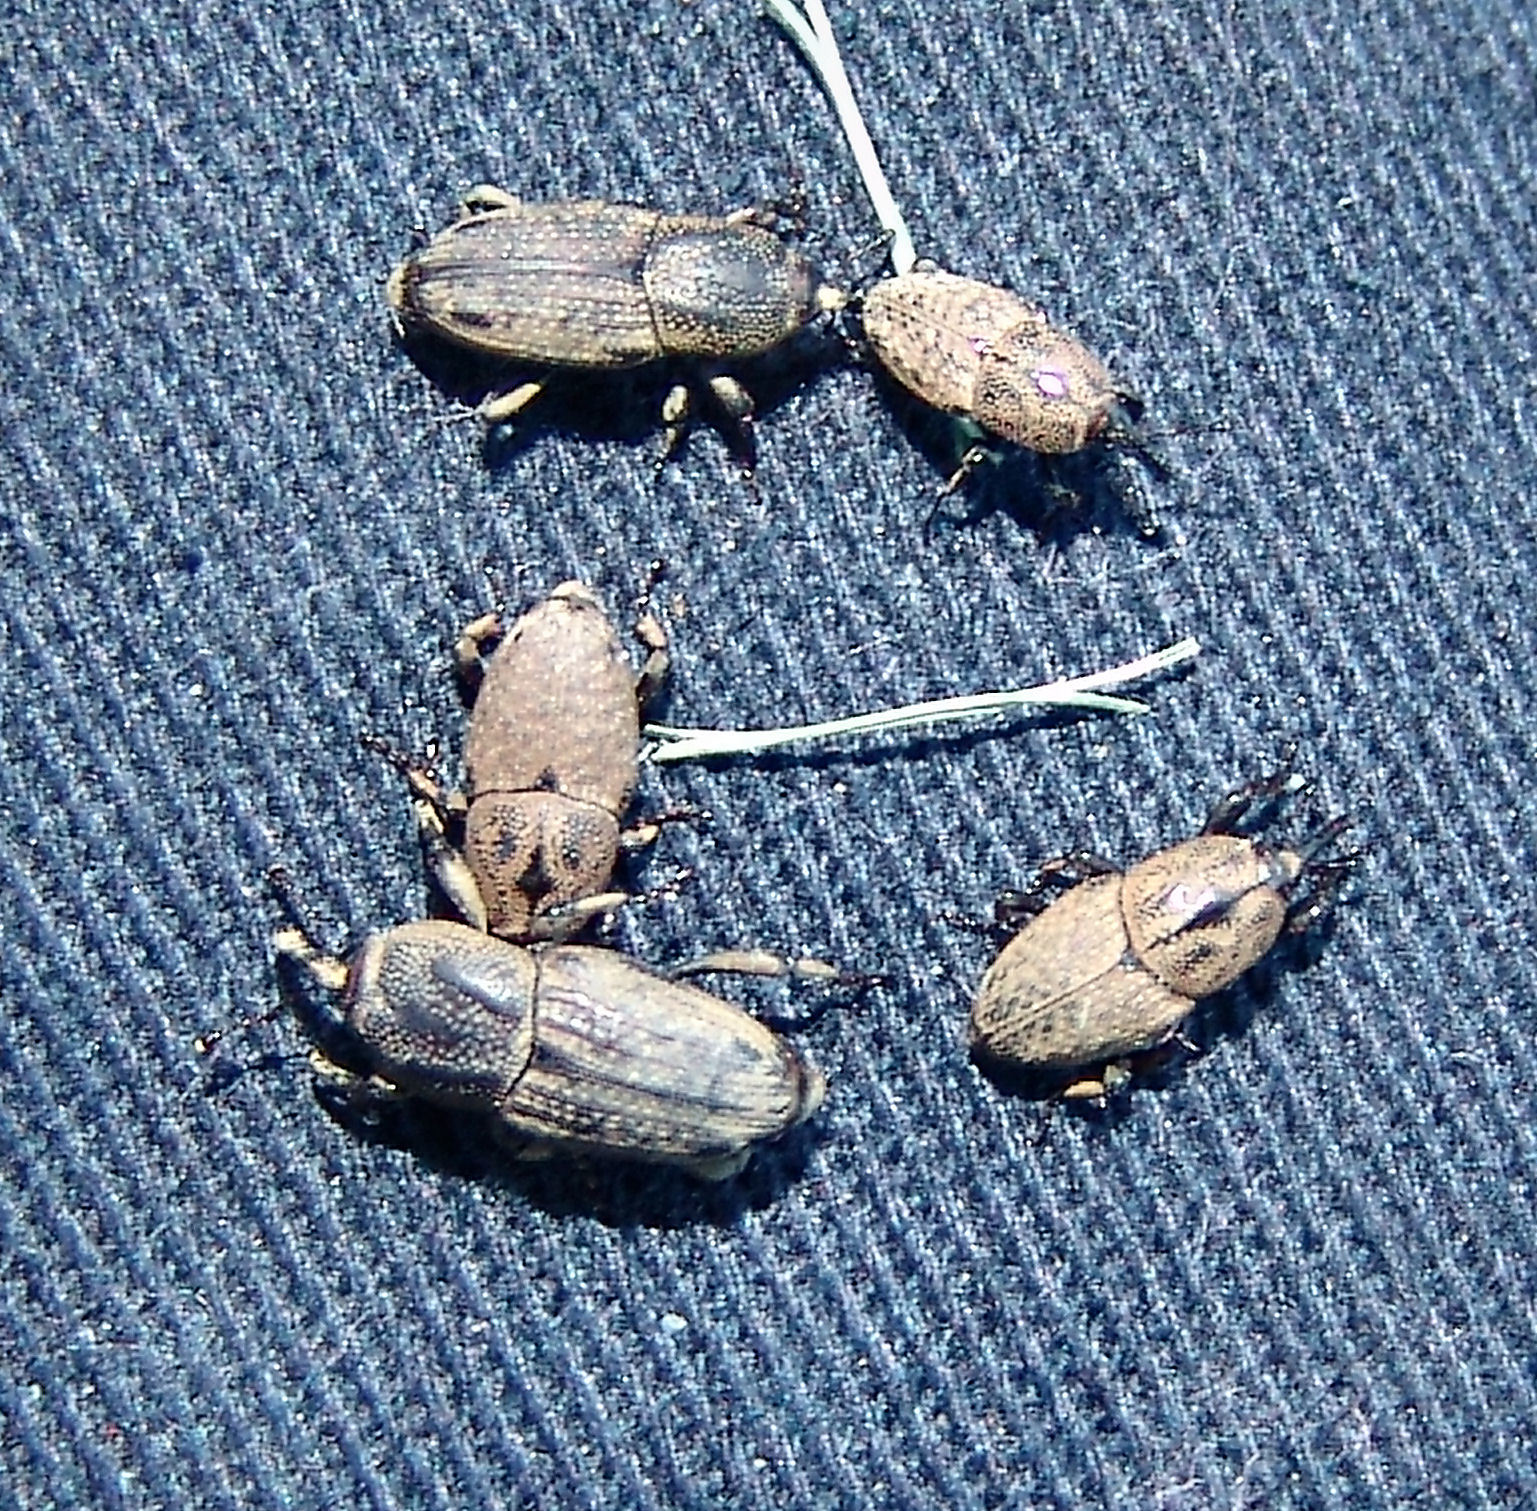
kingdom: Animalia
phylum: Arthropoda
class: Insecta
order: Coleoptera
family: Dryophthoridae
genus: Sphenophorus
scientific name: Sphenophorus venatus
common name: Hunting billbug
